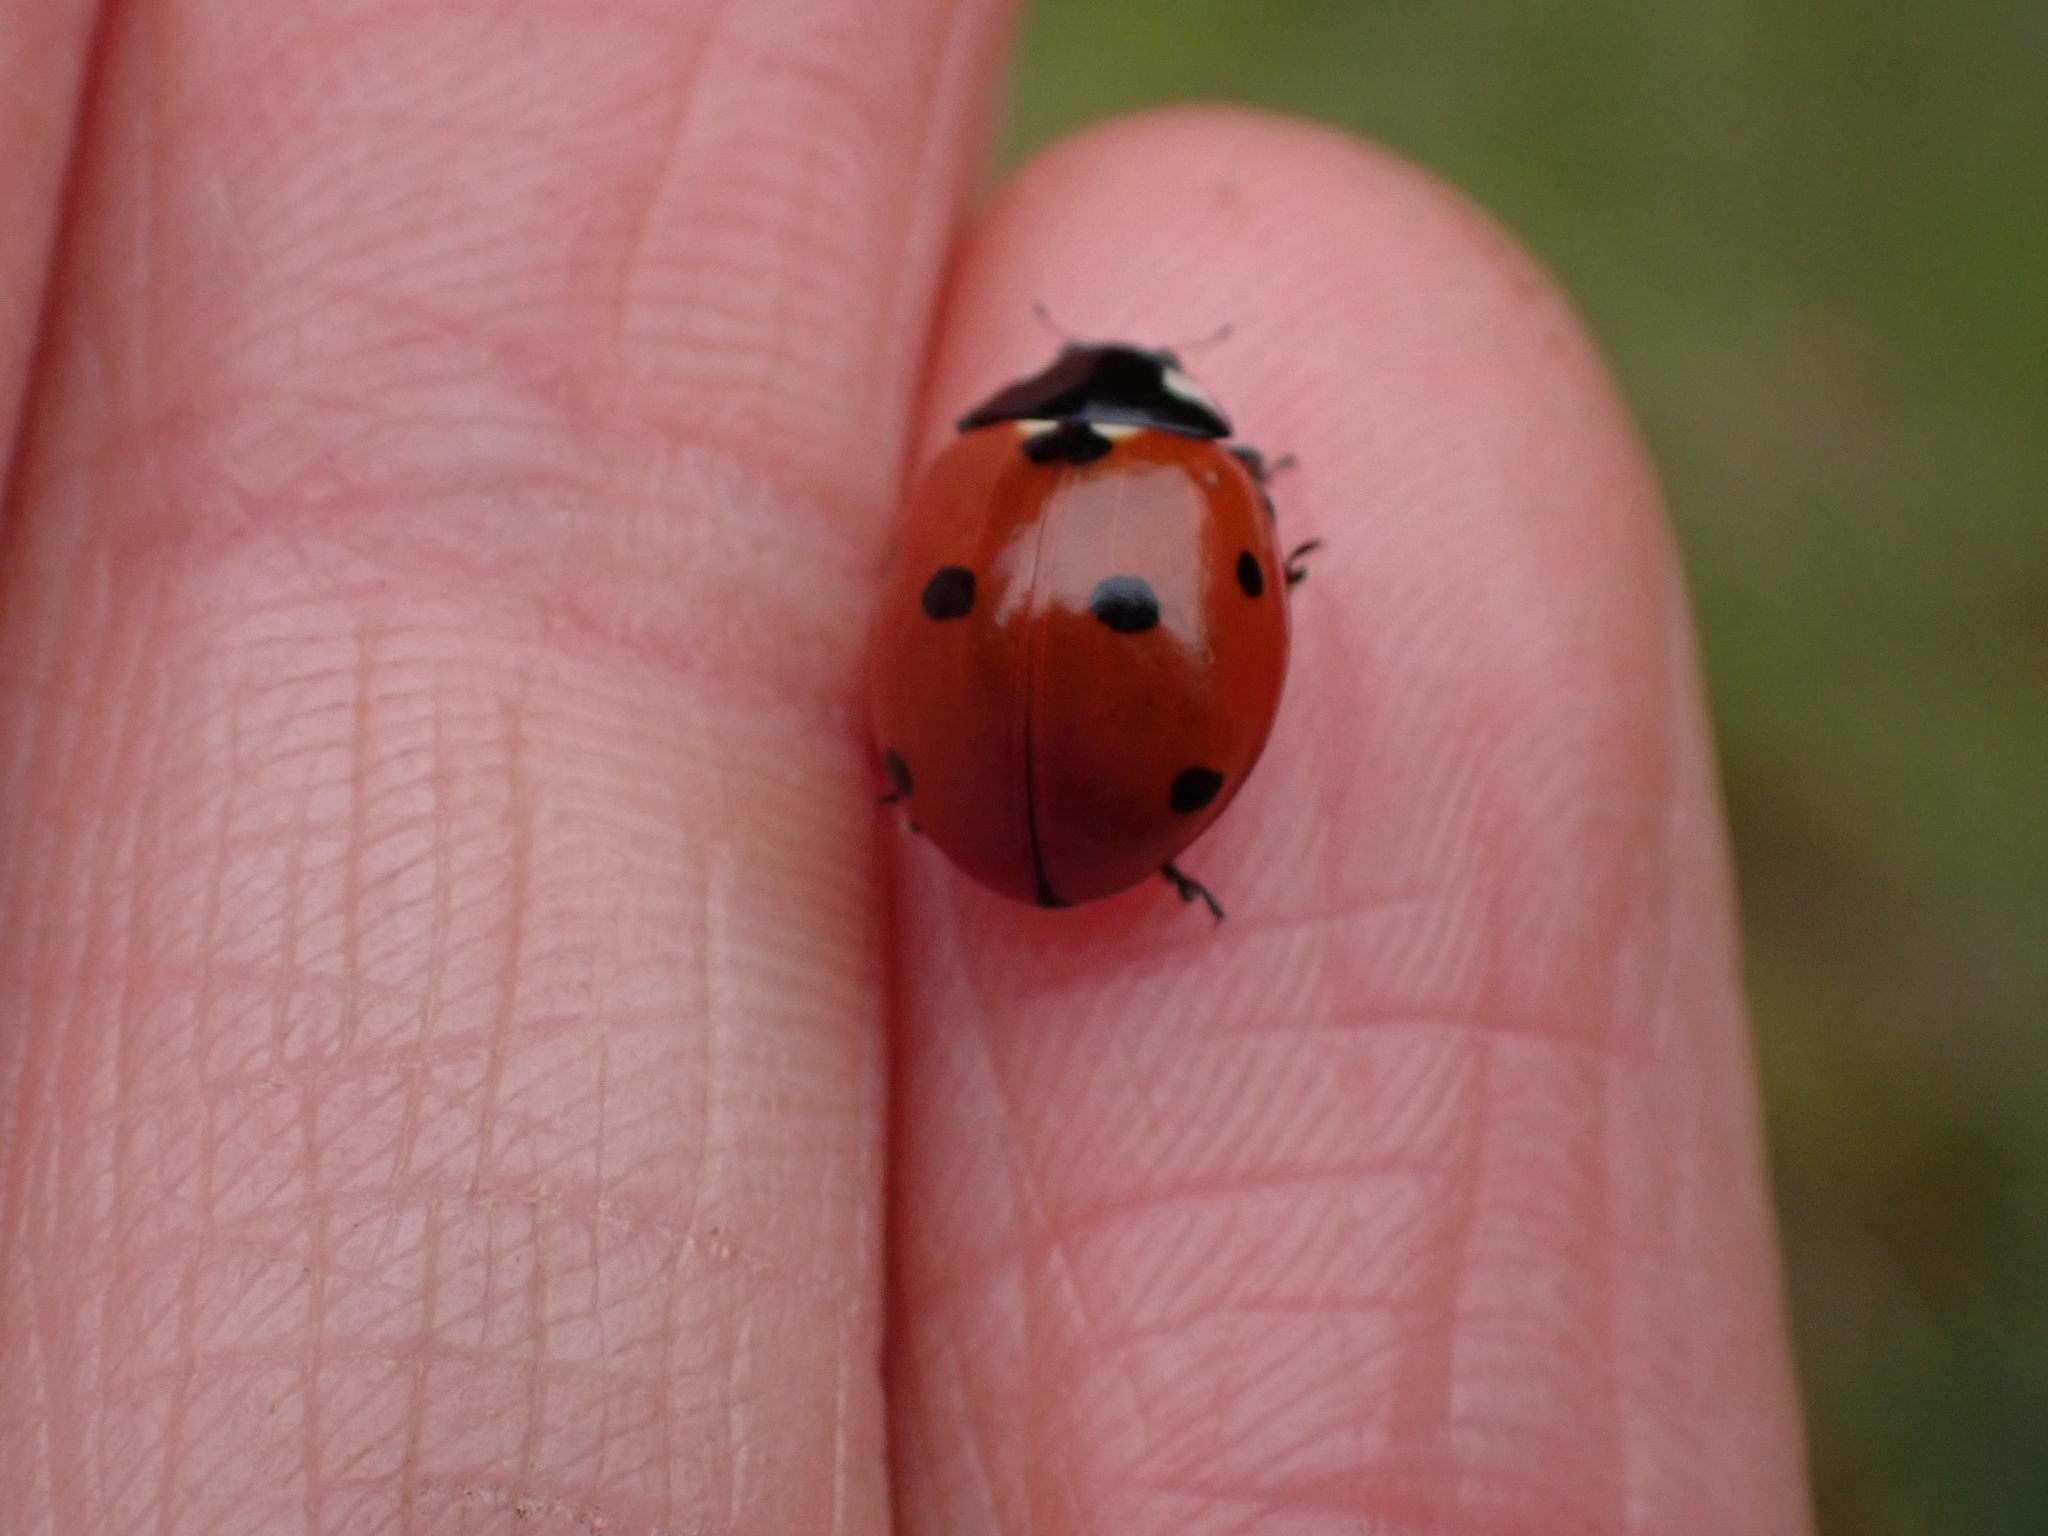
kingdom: Animalia
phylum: Arthropoda
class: Insecta
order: Coleoptera
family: Coccinellidae
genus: Coccinella
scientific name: Coccinella septempunctata
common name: Sevenspotted lady beetle
